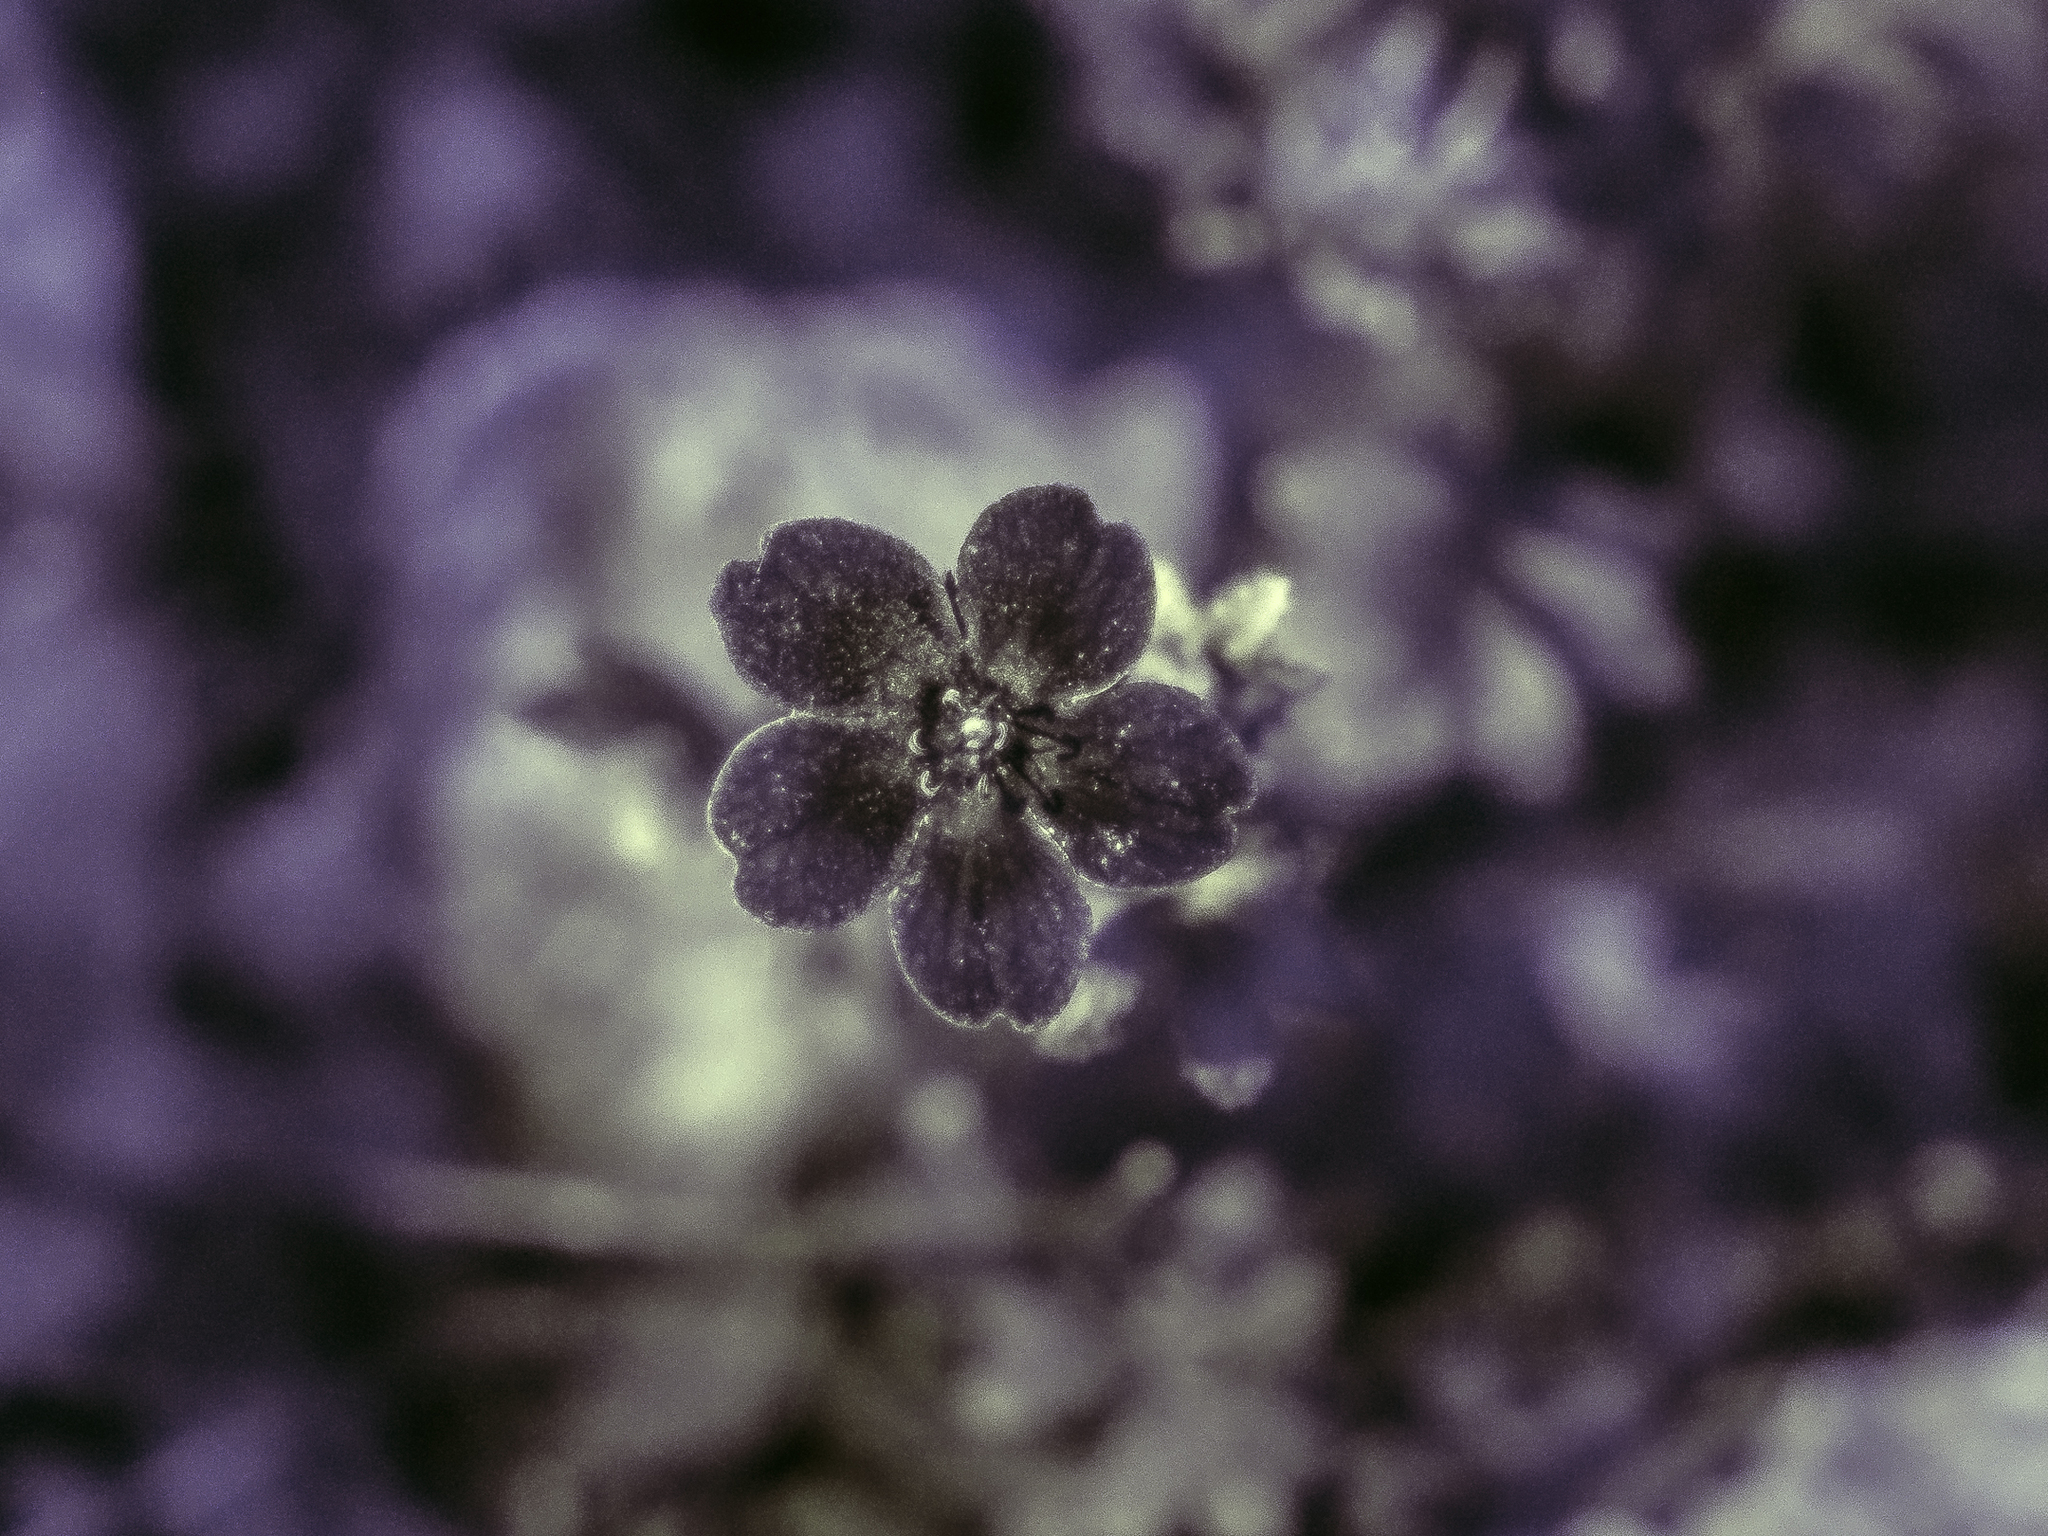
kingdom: Plantae
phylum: Tracheophyta
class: Magnoliopsida
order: Boraginales
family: Hydrophyllaceae
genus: Nemophila
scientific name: Nemophila phacelioides
